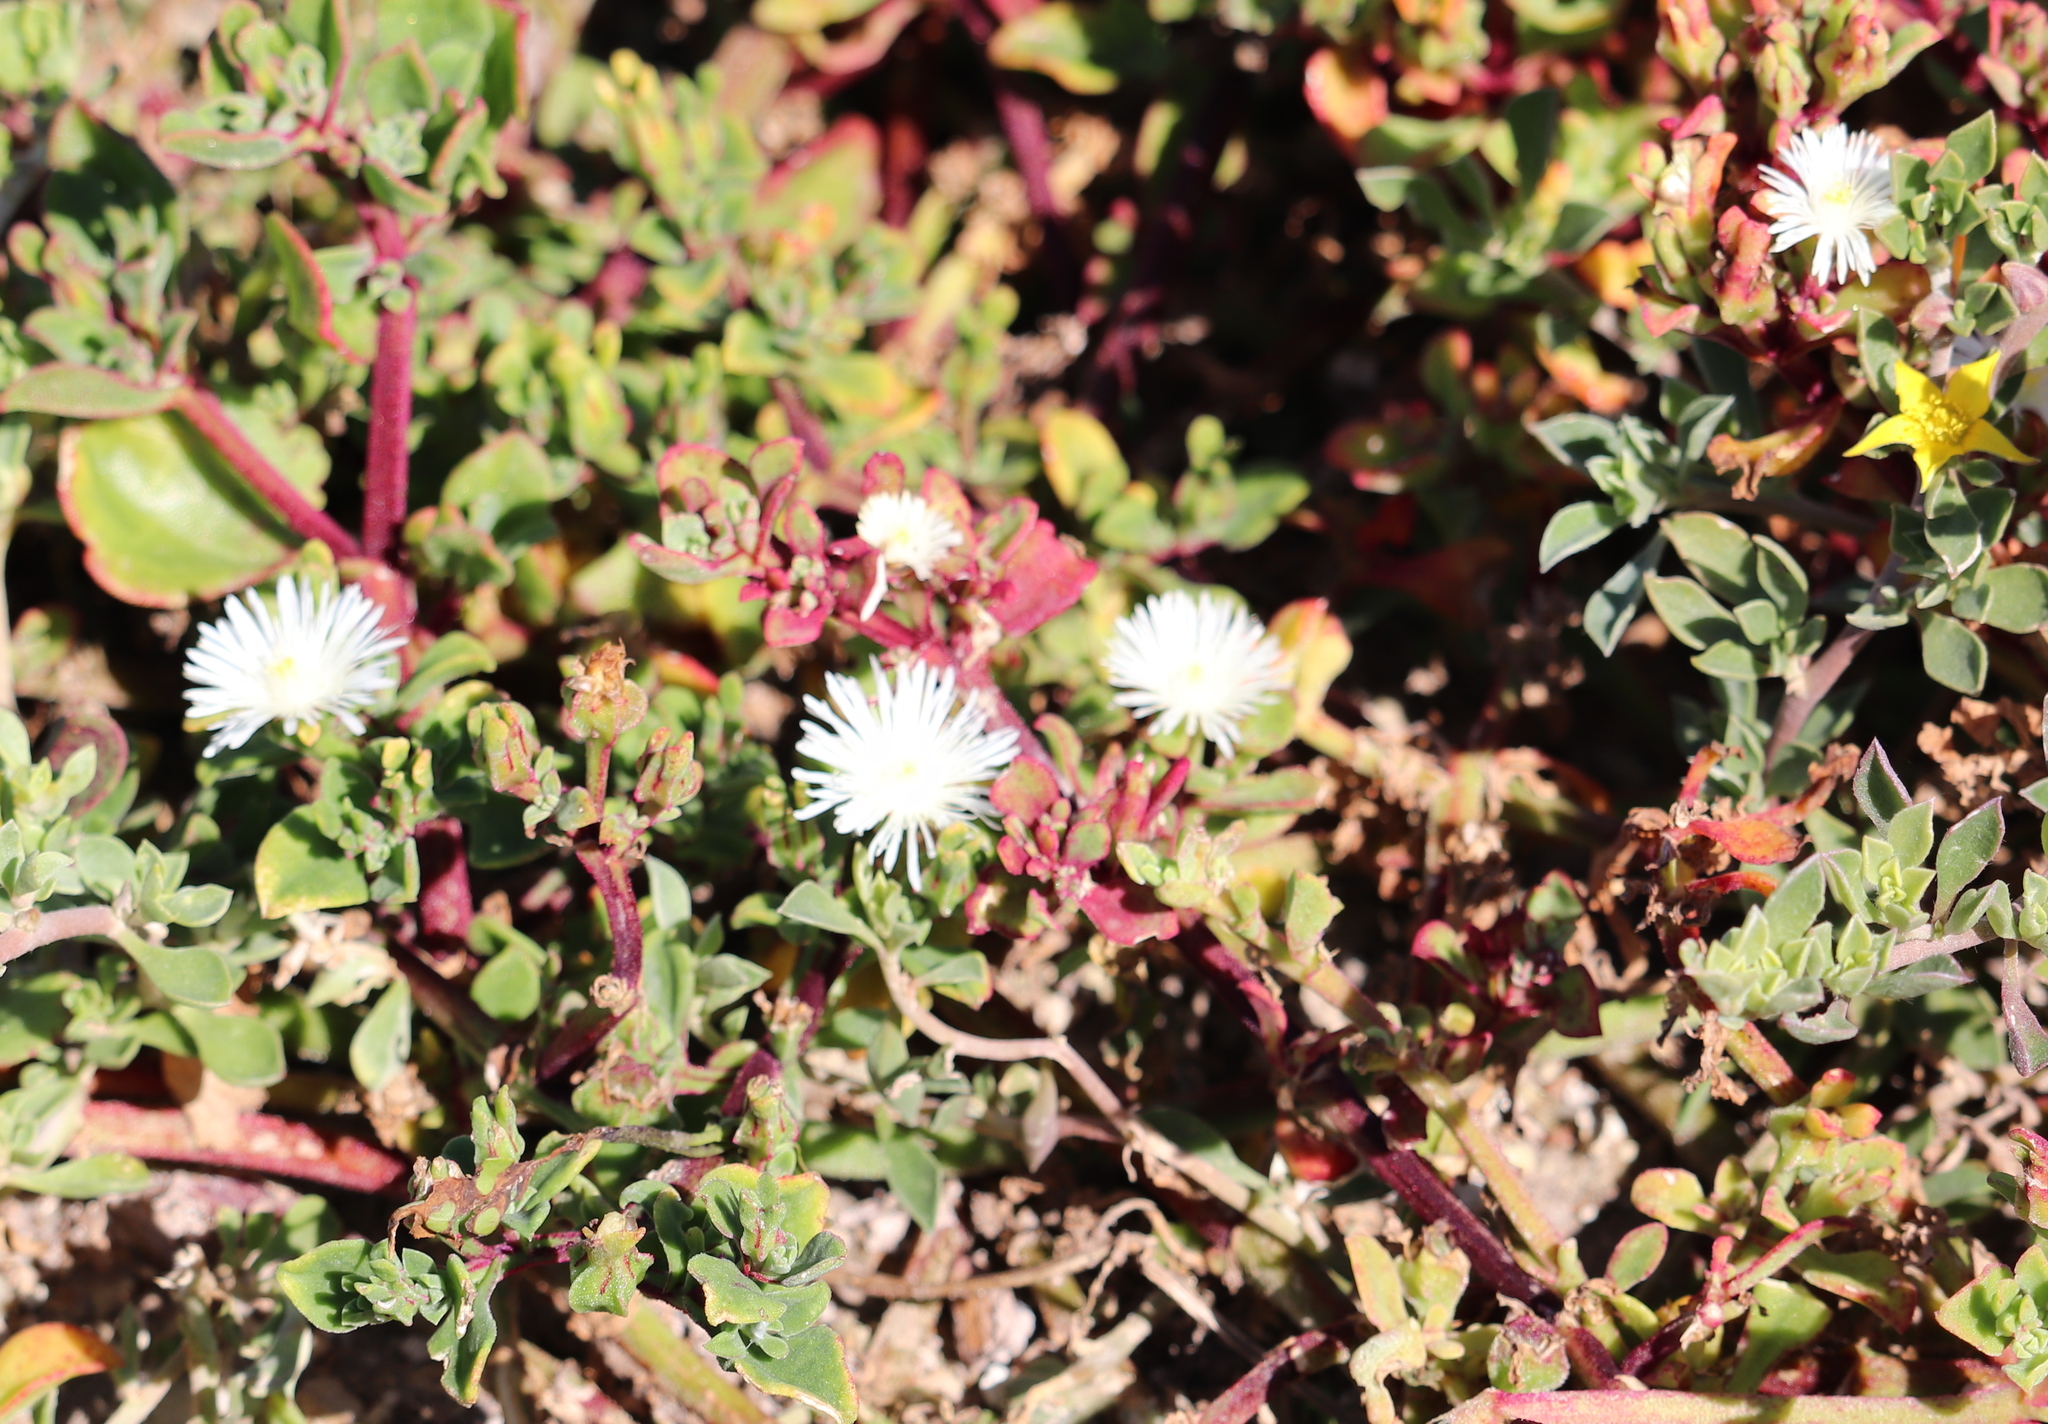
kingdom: Plantae
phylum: Tracheophyta
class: Magnoliopsida
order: Caryophyllales
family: Aizoaceae
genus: Mesembryanthemum
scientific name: Mesembryanthemum aitonis
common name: Angled iceplant
